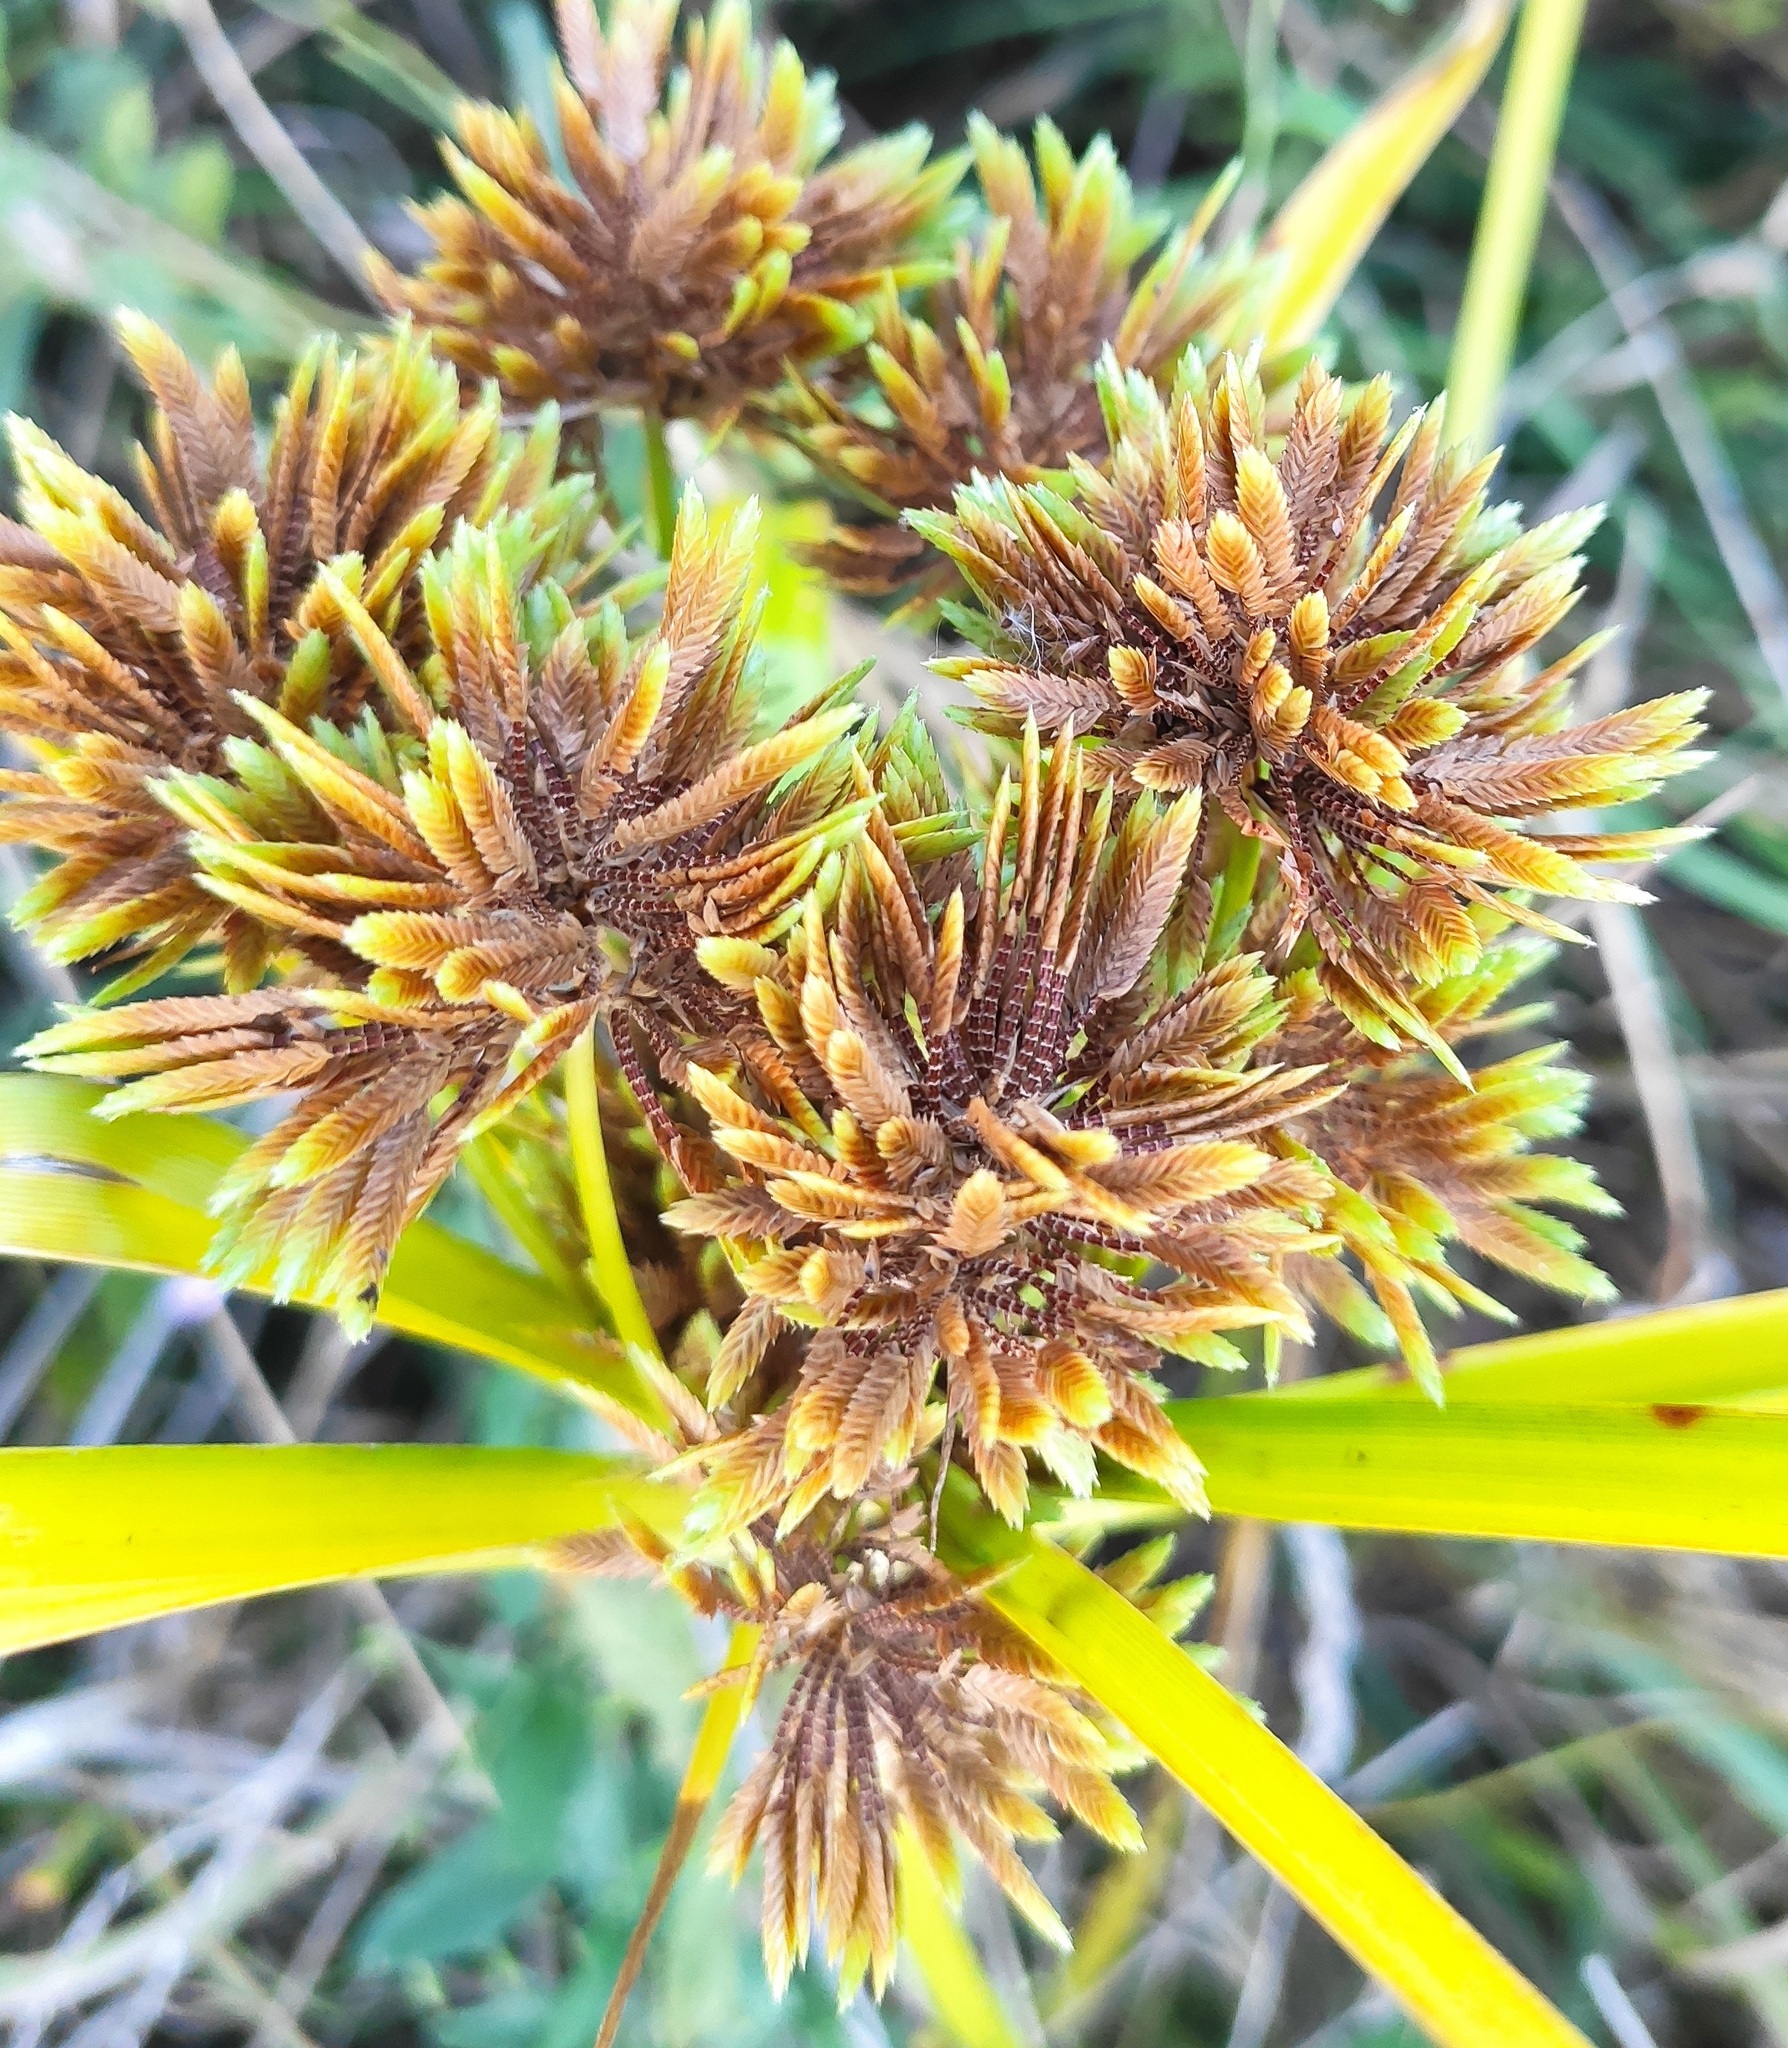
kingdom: Plantae
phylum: Tracheophyta
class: Liliopsida
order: Poales
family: Cyperaceae
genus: Cyperus
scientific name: Cyperus eragrostis
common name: Tall flatsedge
